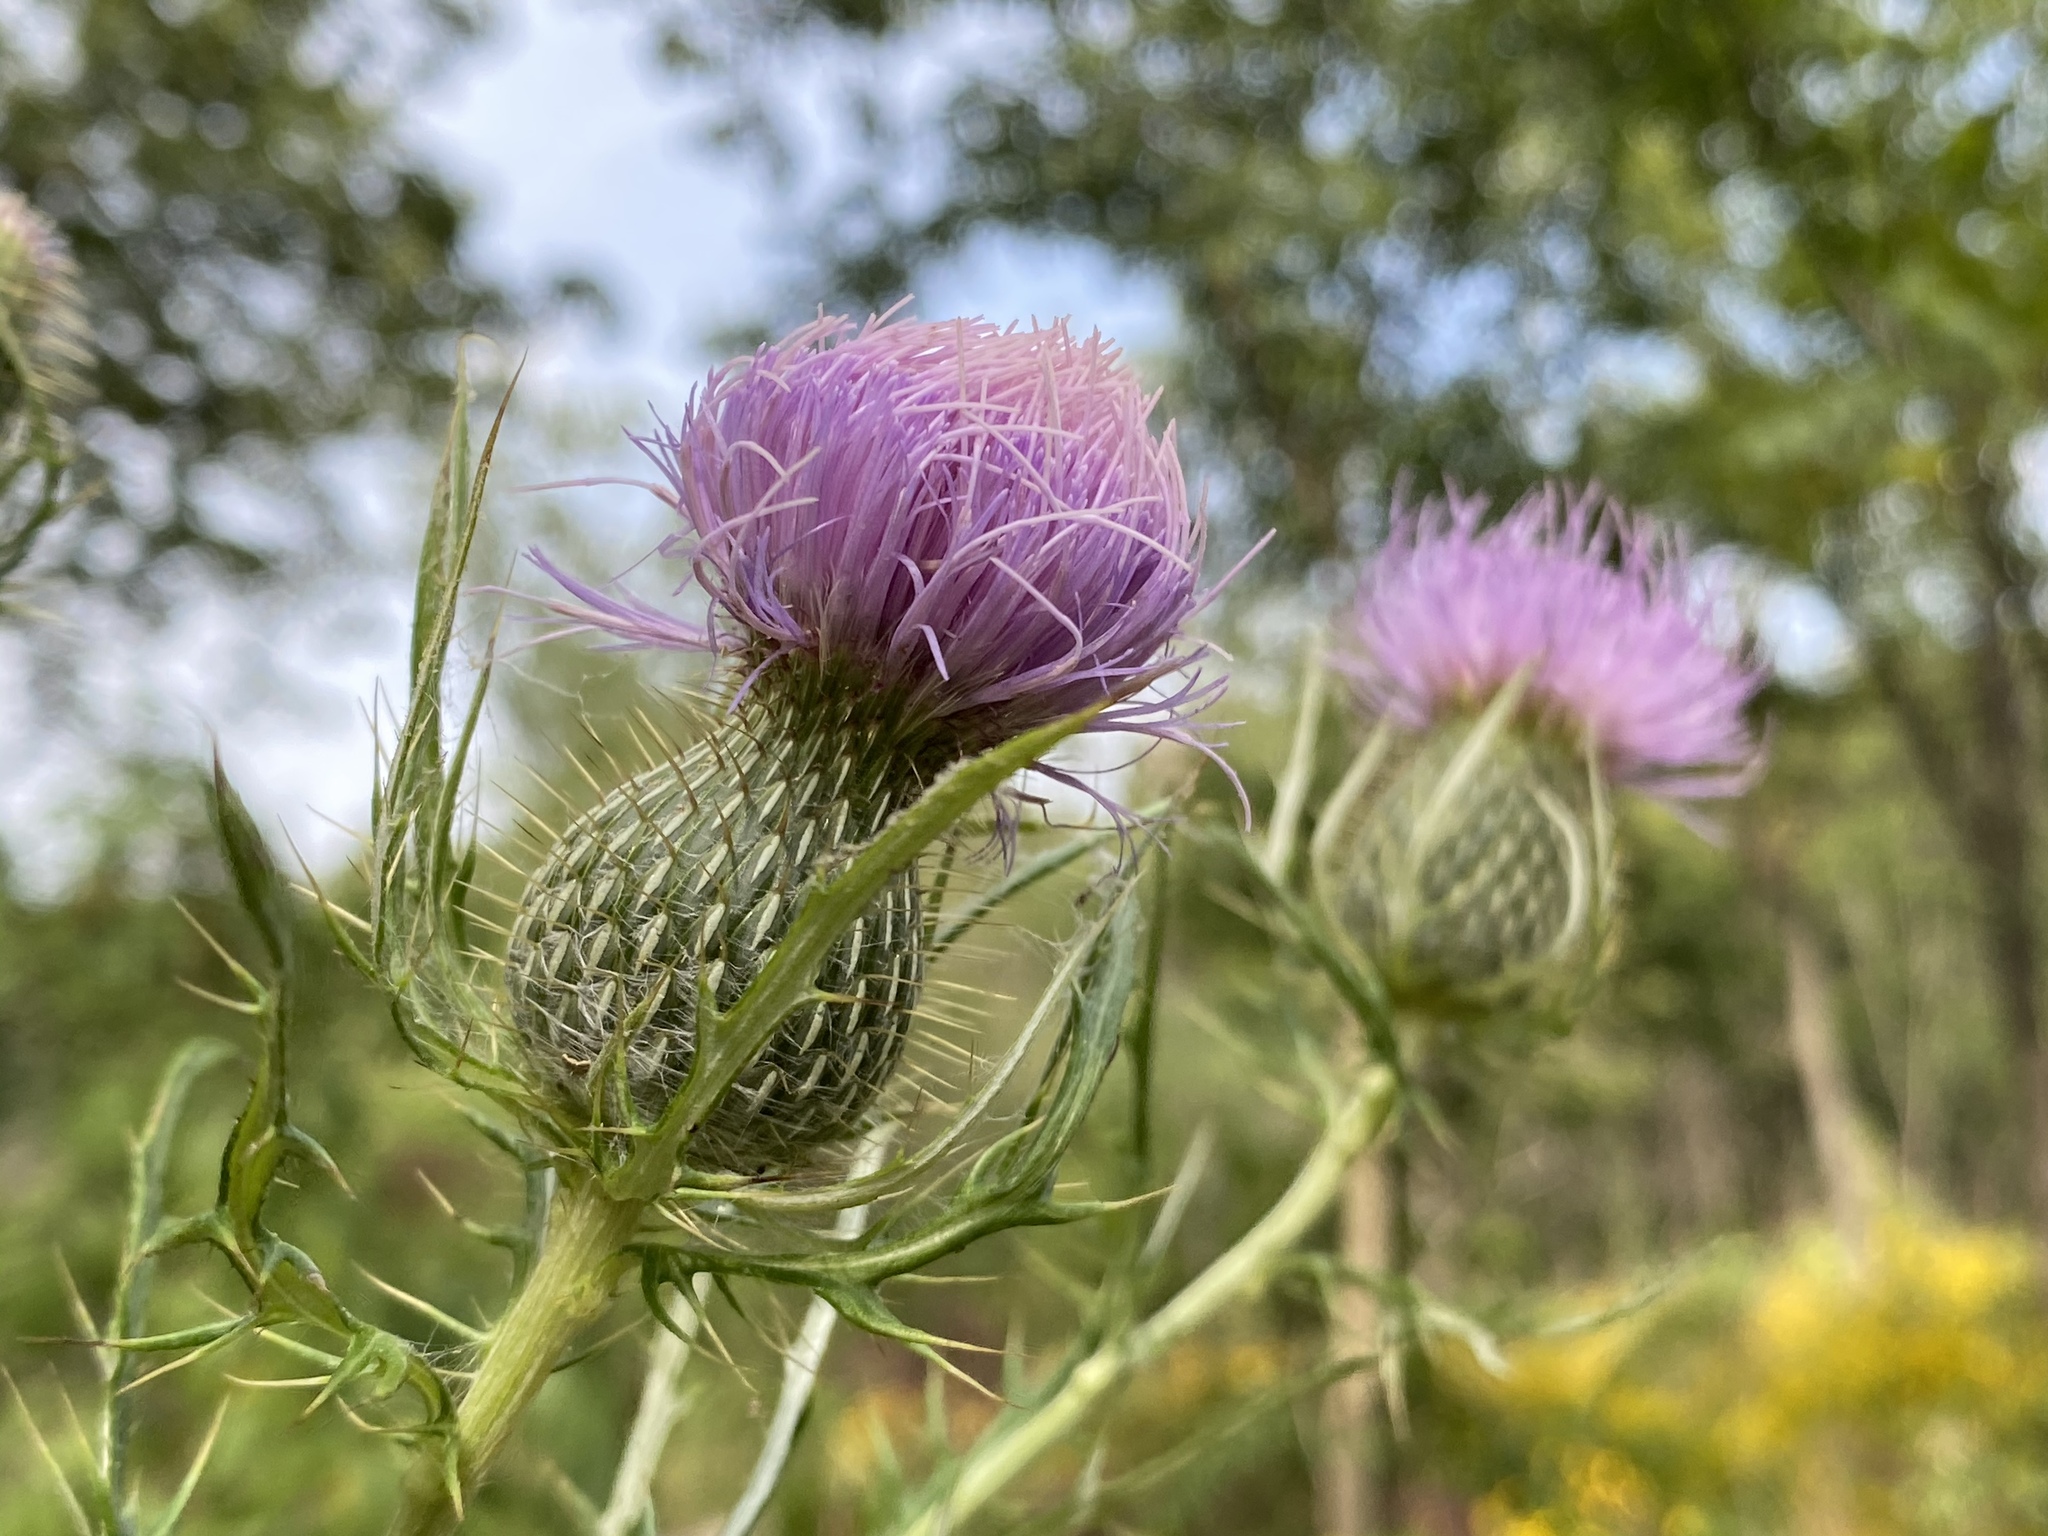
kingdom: Plantae
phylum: Tracheophyta
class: Magnoliopsida
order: Asterales
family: Asteraceae
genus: Cirsium
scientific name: Cirsium discolor
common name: Field thistle
